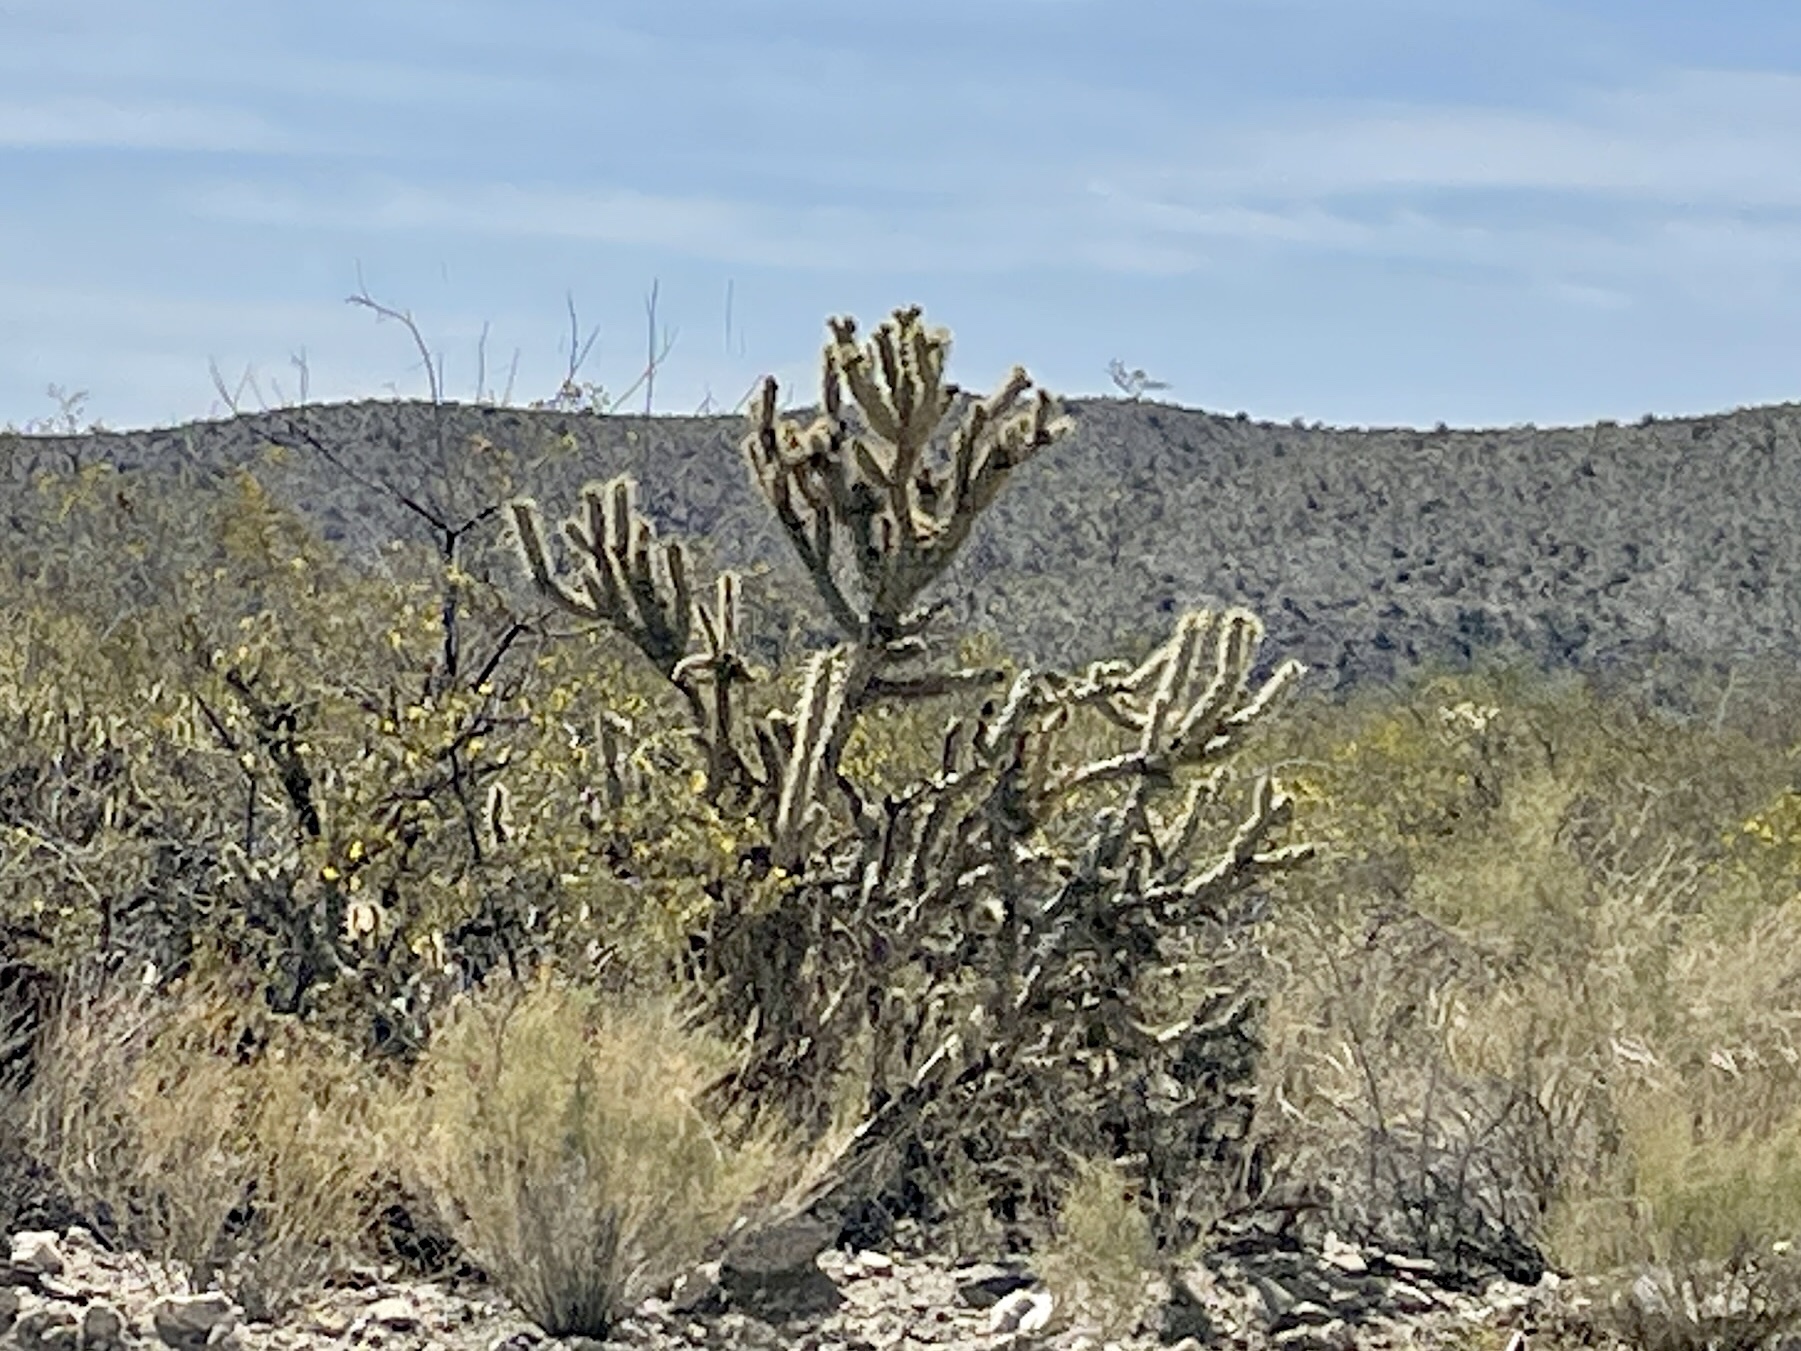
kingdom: Plantae
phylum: Tracheophyta
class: Magnoliopsida
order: Caryophyllales
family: Cactaceae
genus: Cylindropuntia
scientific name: Cylindropuntia acanthocarpa
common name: Buckhorn cholla
